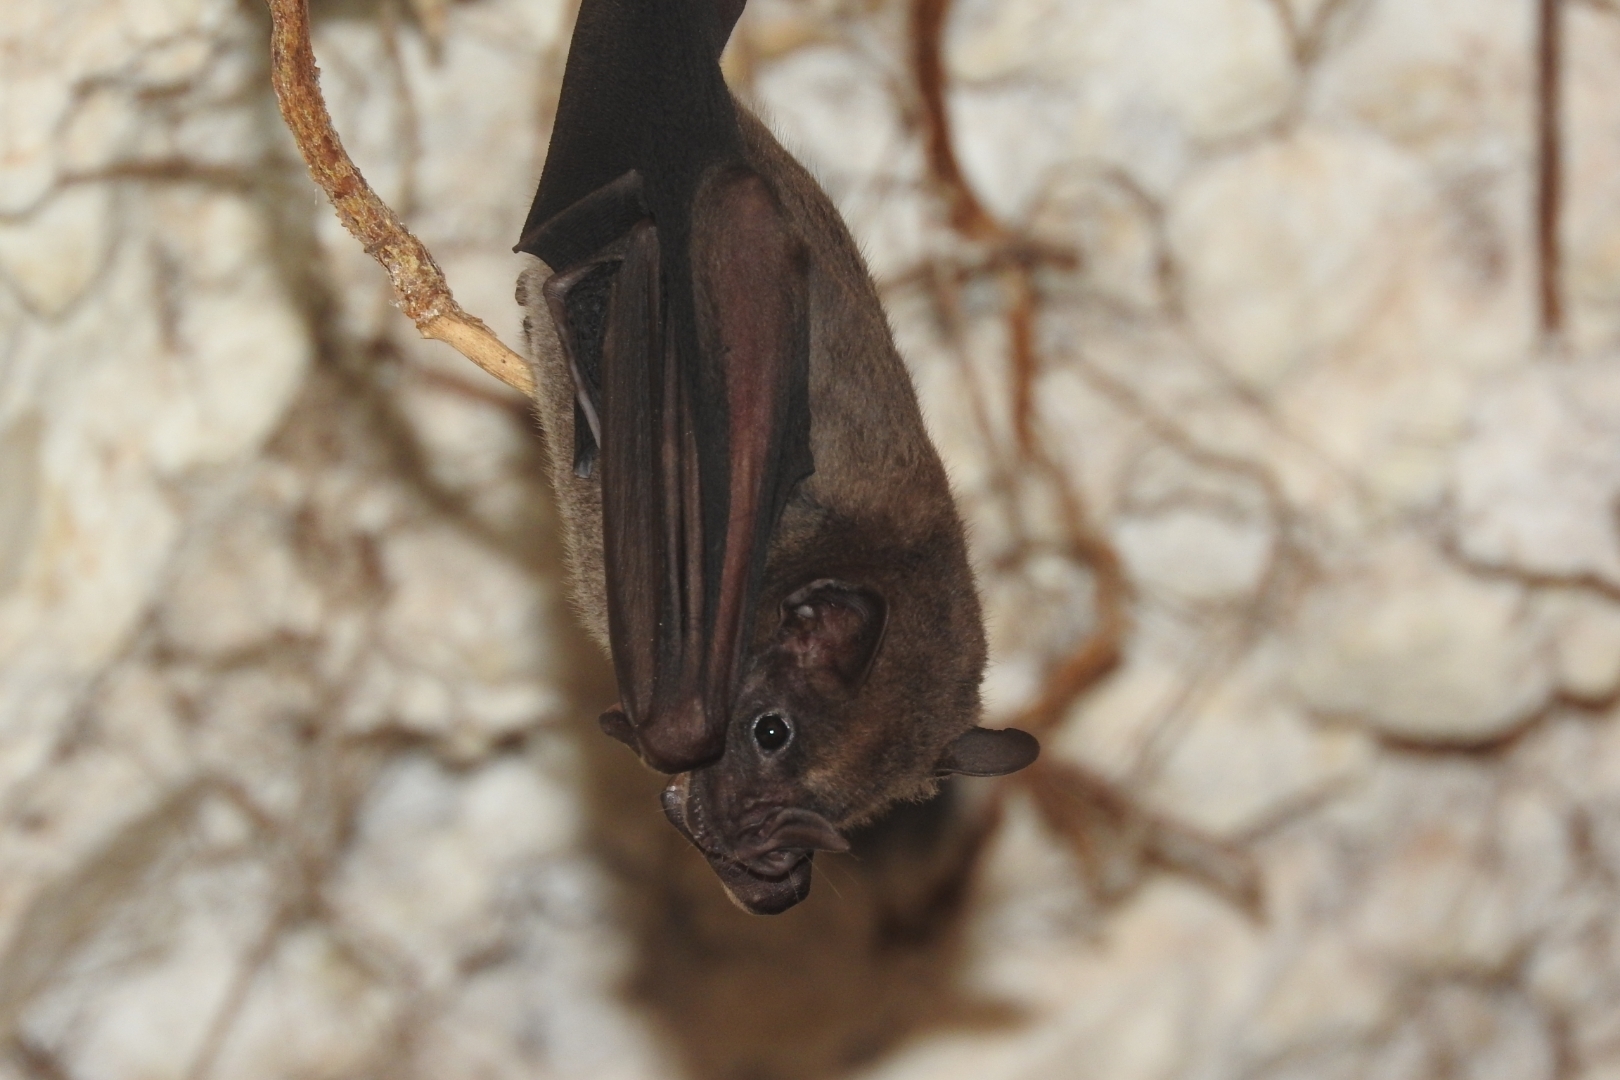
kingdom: Animalia
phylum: Chordata
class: Mammalia
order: Chiroptera
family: Phyllostomidae
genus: Artibeus
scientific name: Artibeus jamaicensis
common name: Jamaican fruit-eating bat
